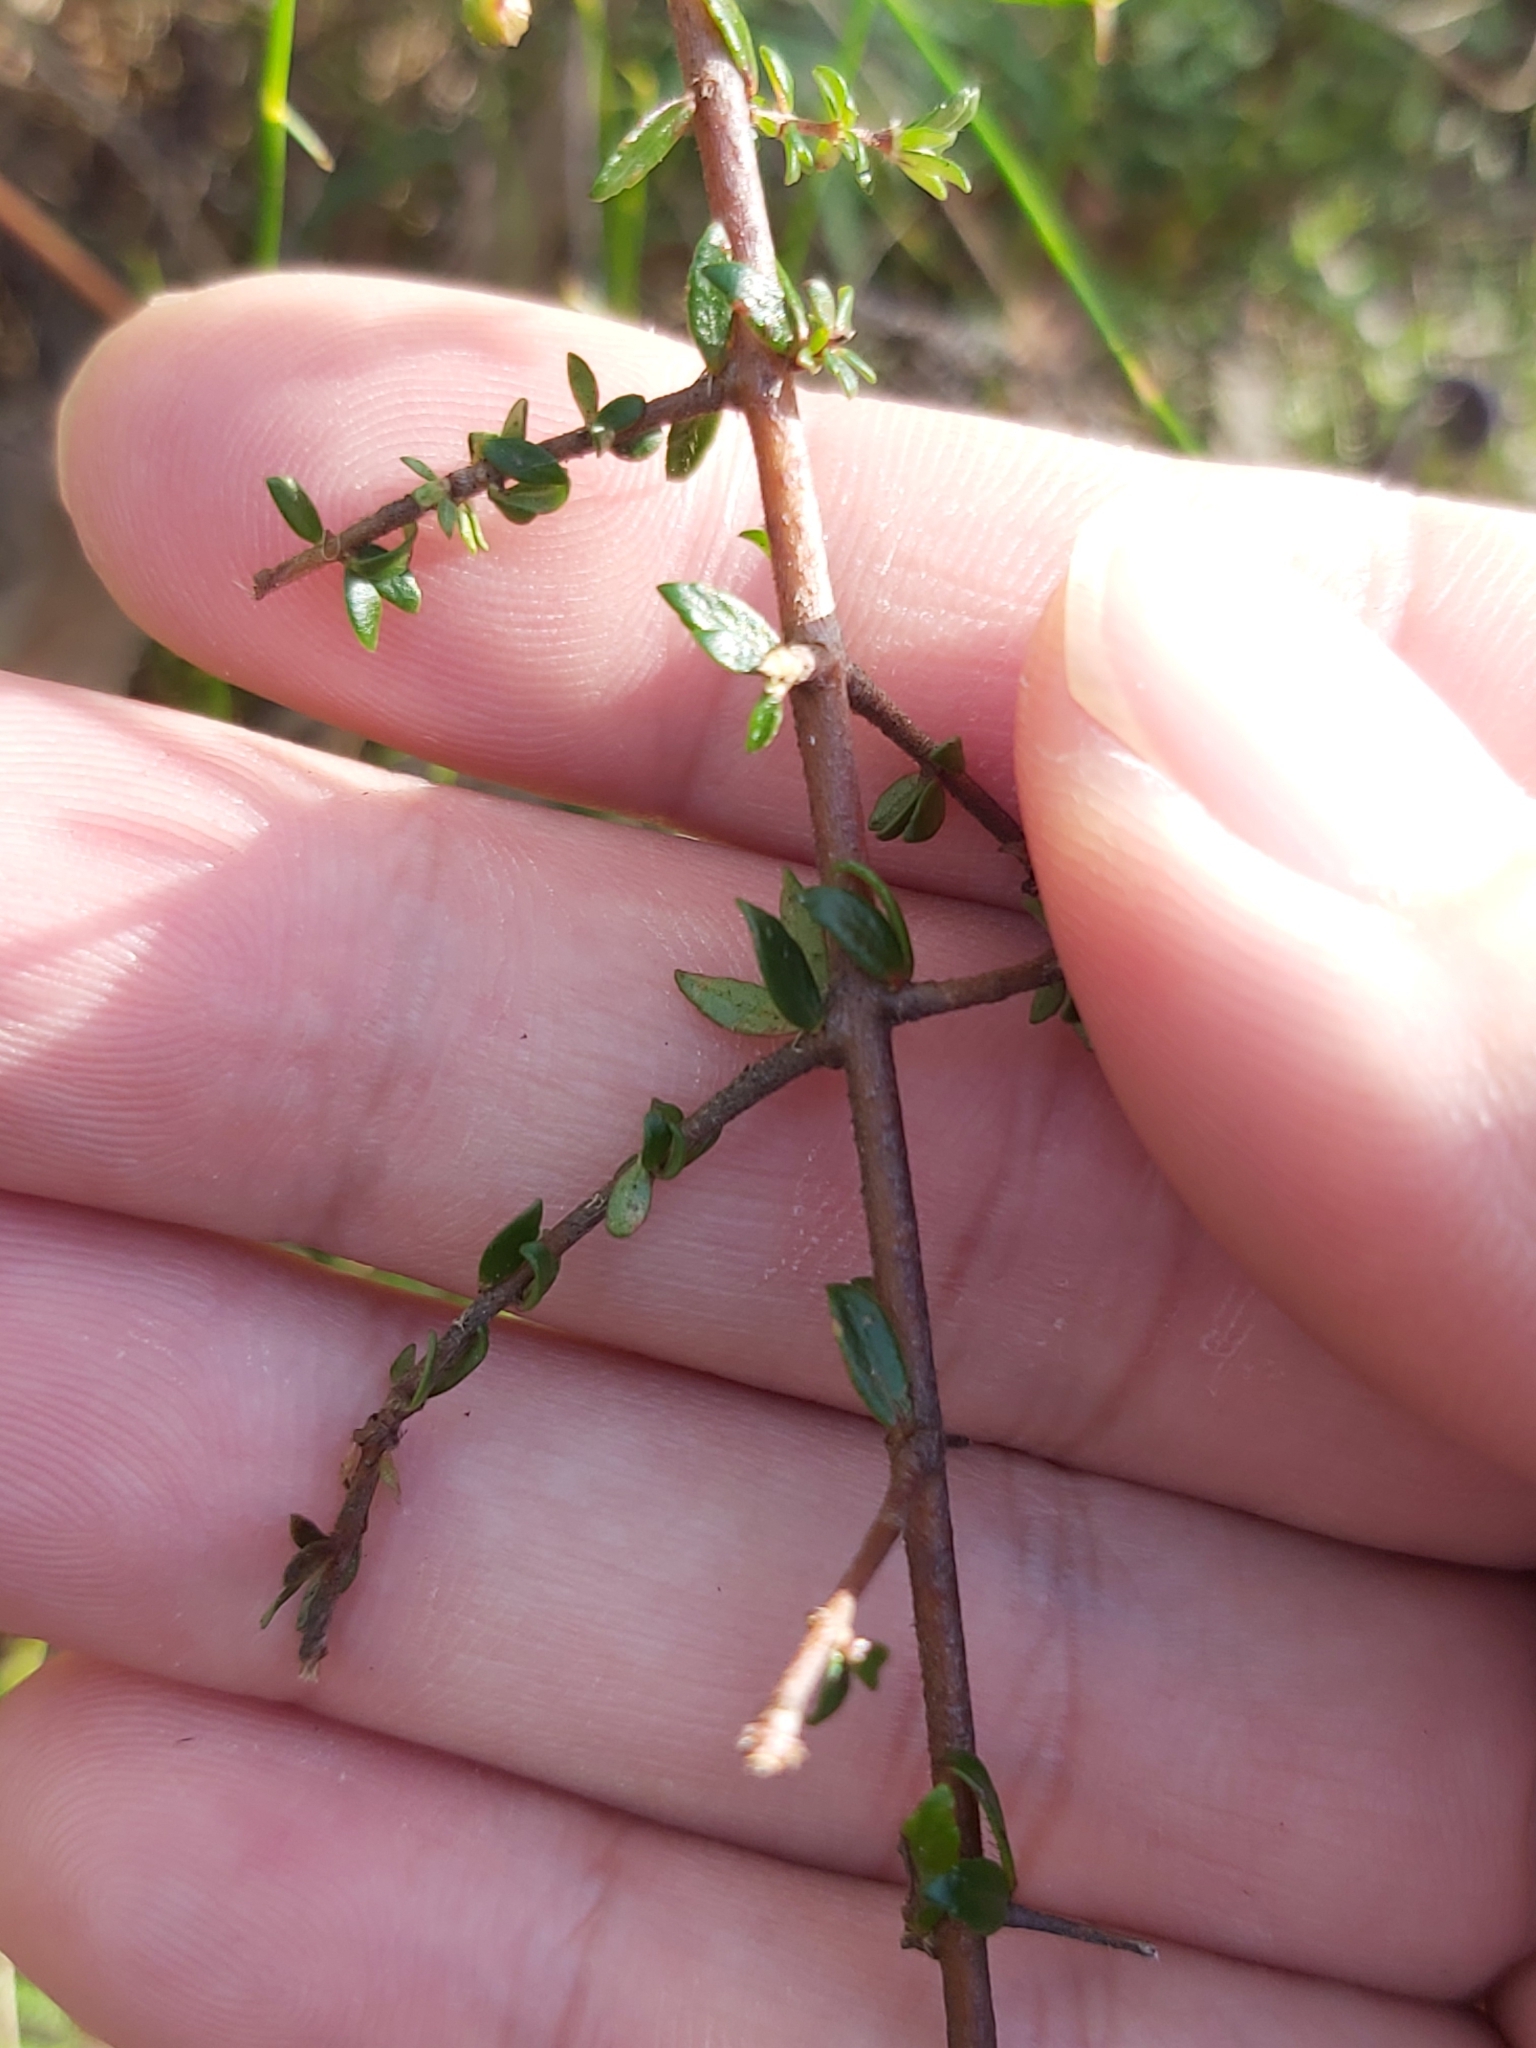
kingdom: Plantae
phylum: Tracheophyta
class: Magnoliopsida
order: Oxalidales
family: Cunoniaceae
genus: Bauera
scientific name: Bauera rubioides
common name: River-rose
